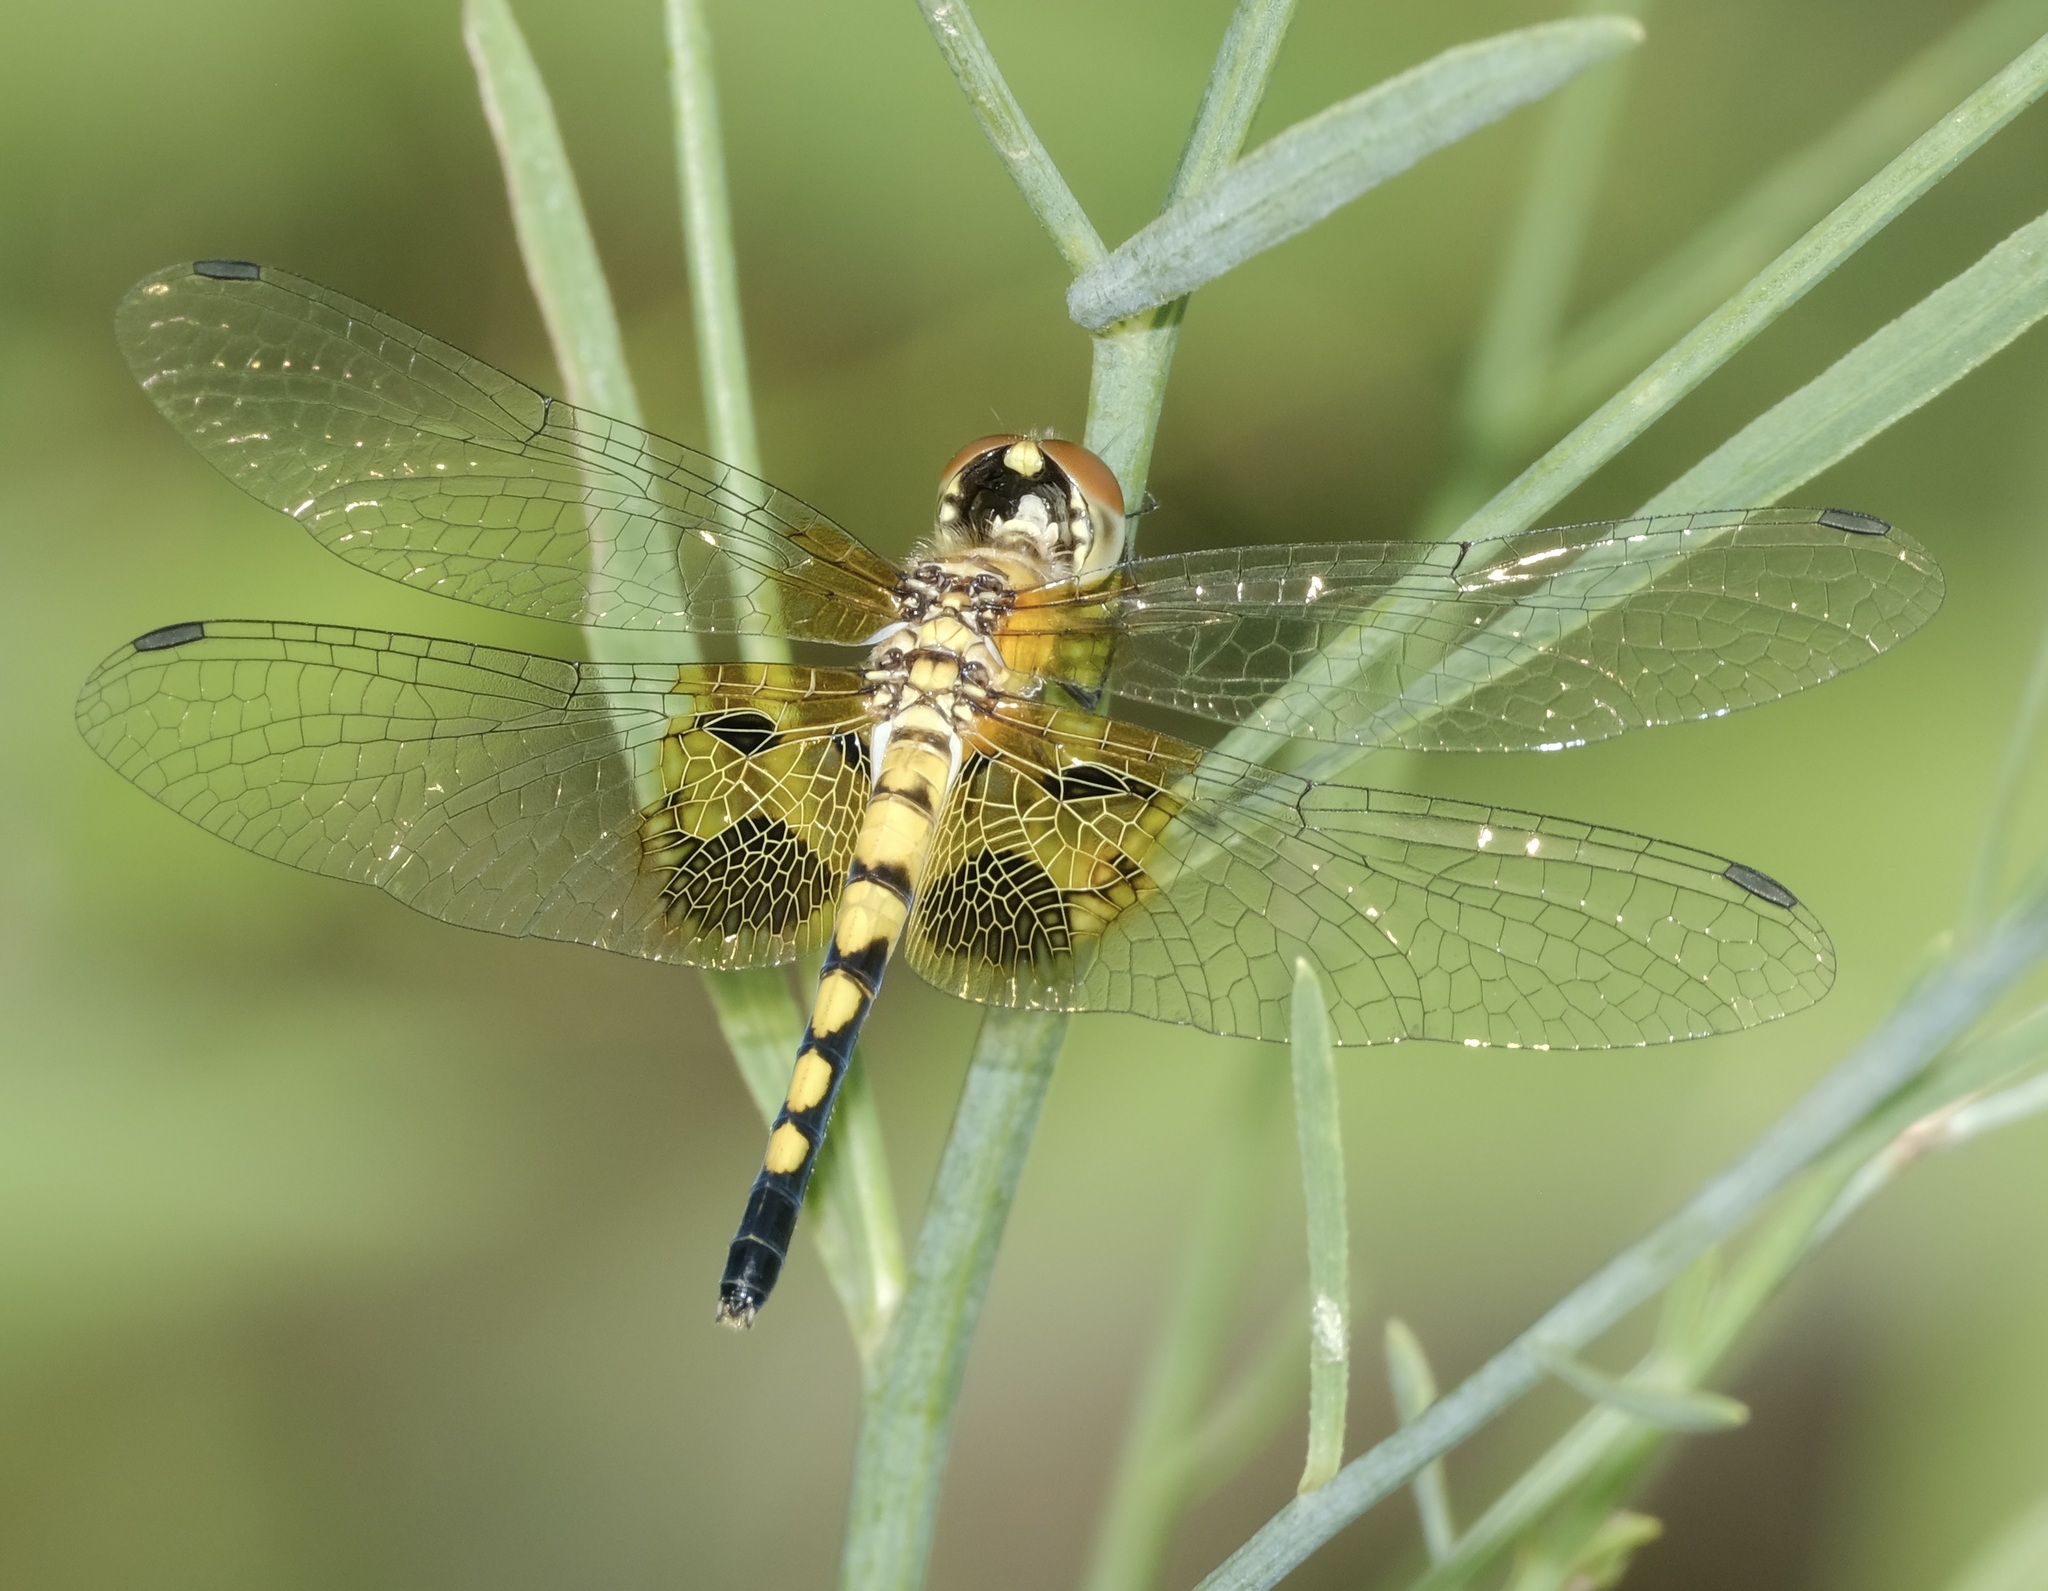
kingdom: Animalia
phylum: Arthropoda
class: Insecta
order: Odonata
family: Libellulidae
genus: Celithemis
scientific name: Celithemis amanda
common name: Amanda's pennant
